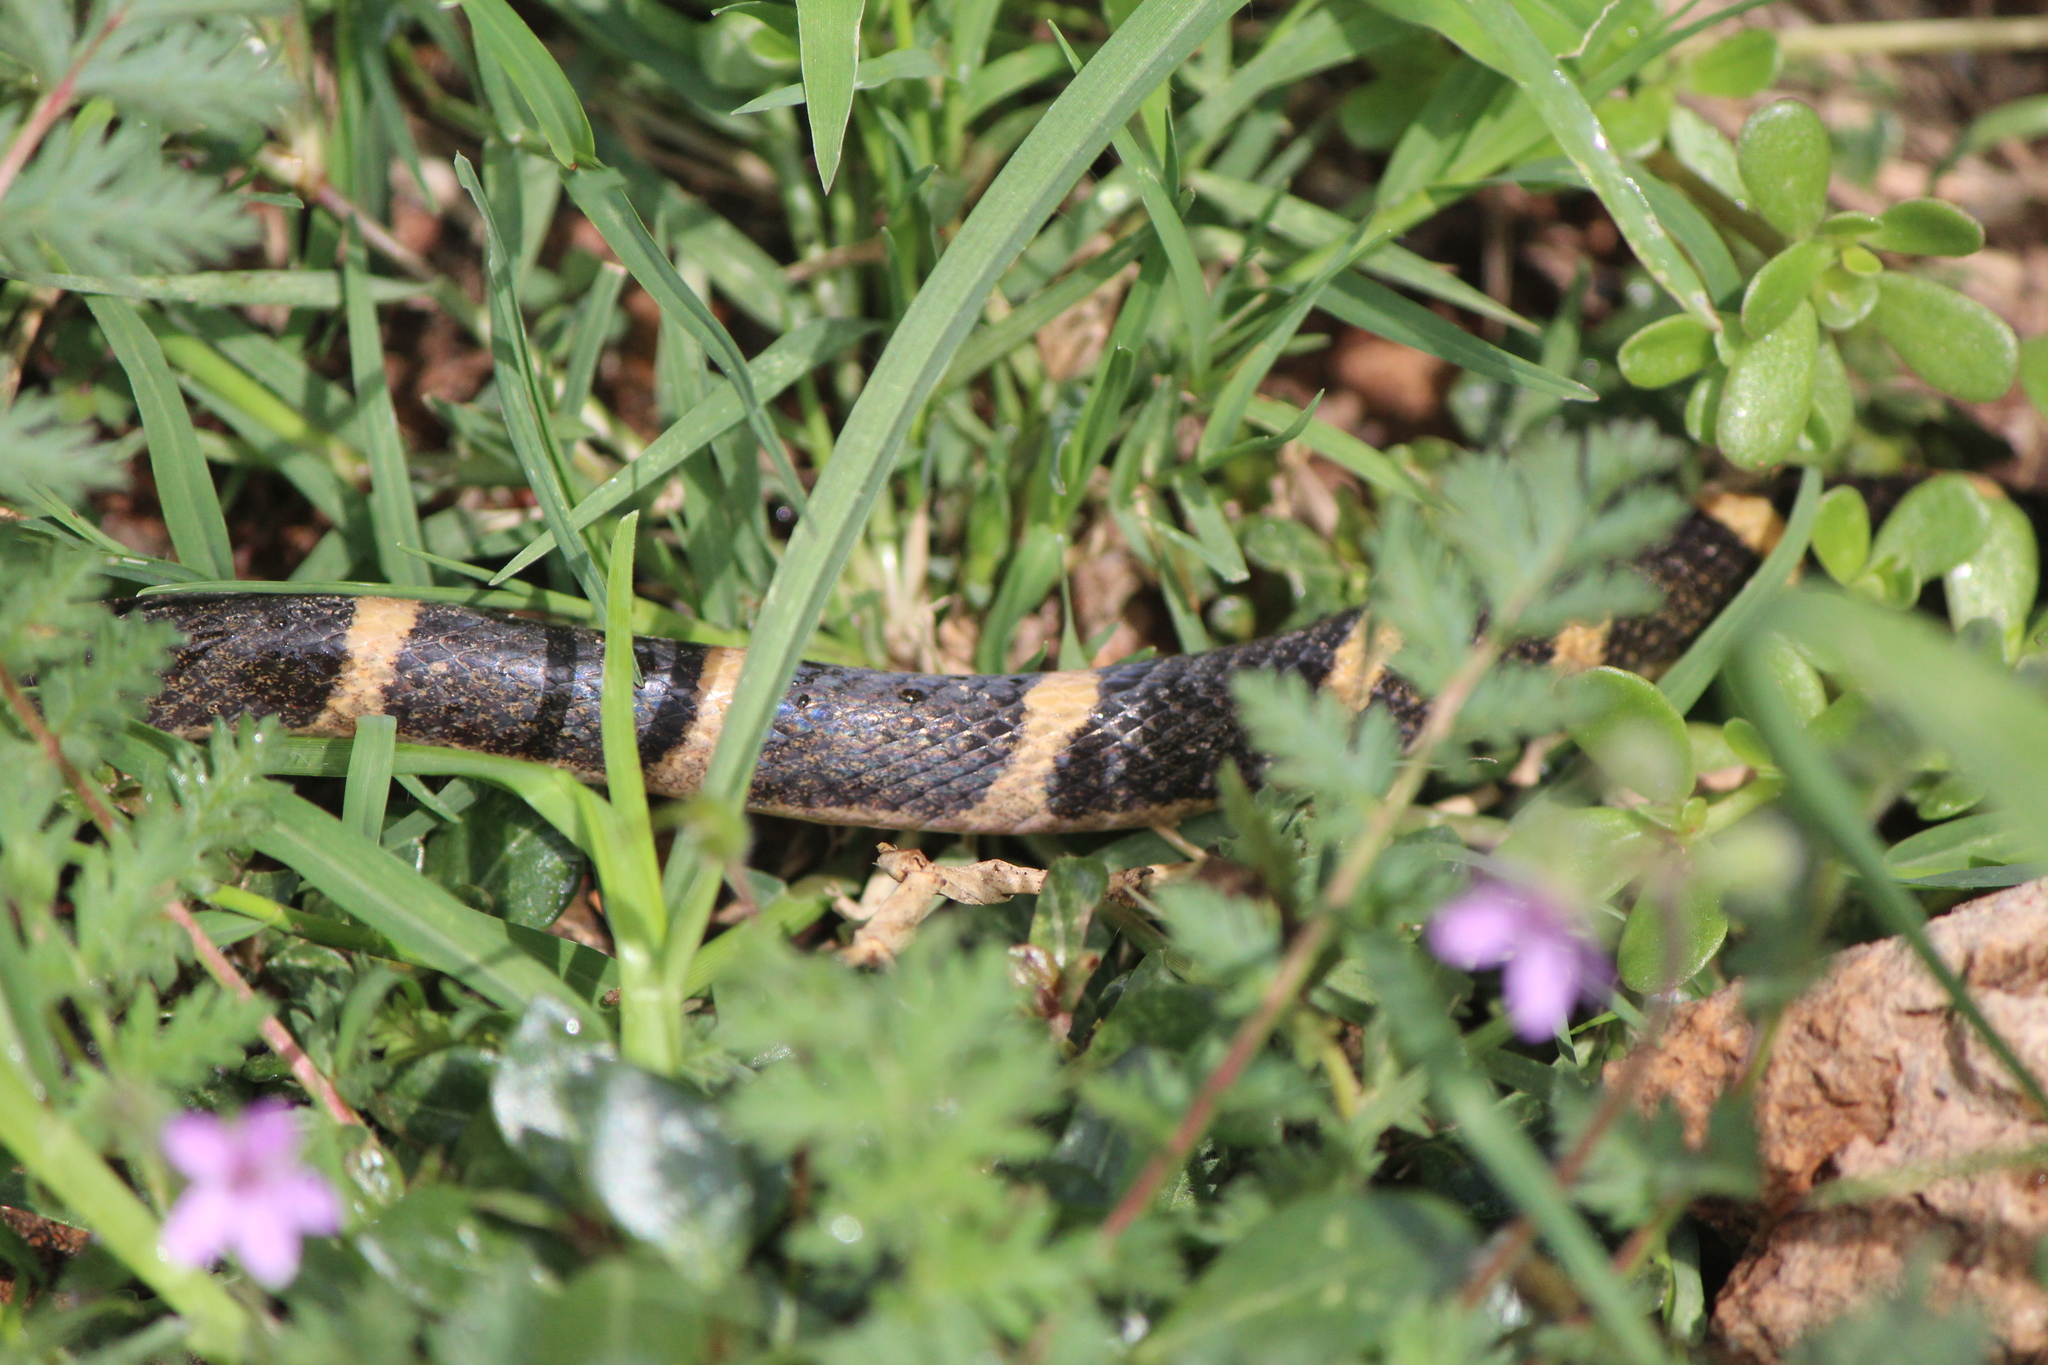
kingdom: Animalia
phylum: Chordata
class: Squamata
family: Colubridae
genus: Leptodeira
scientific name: Leptodeira septentrionalis
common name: Northern cat-eyed snake
